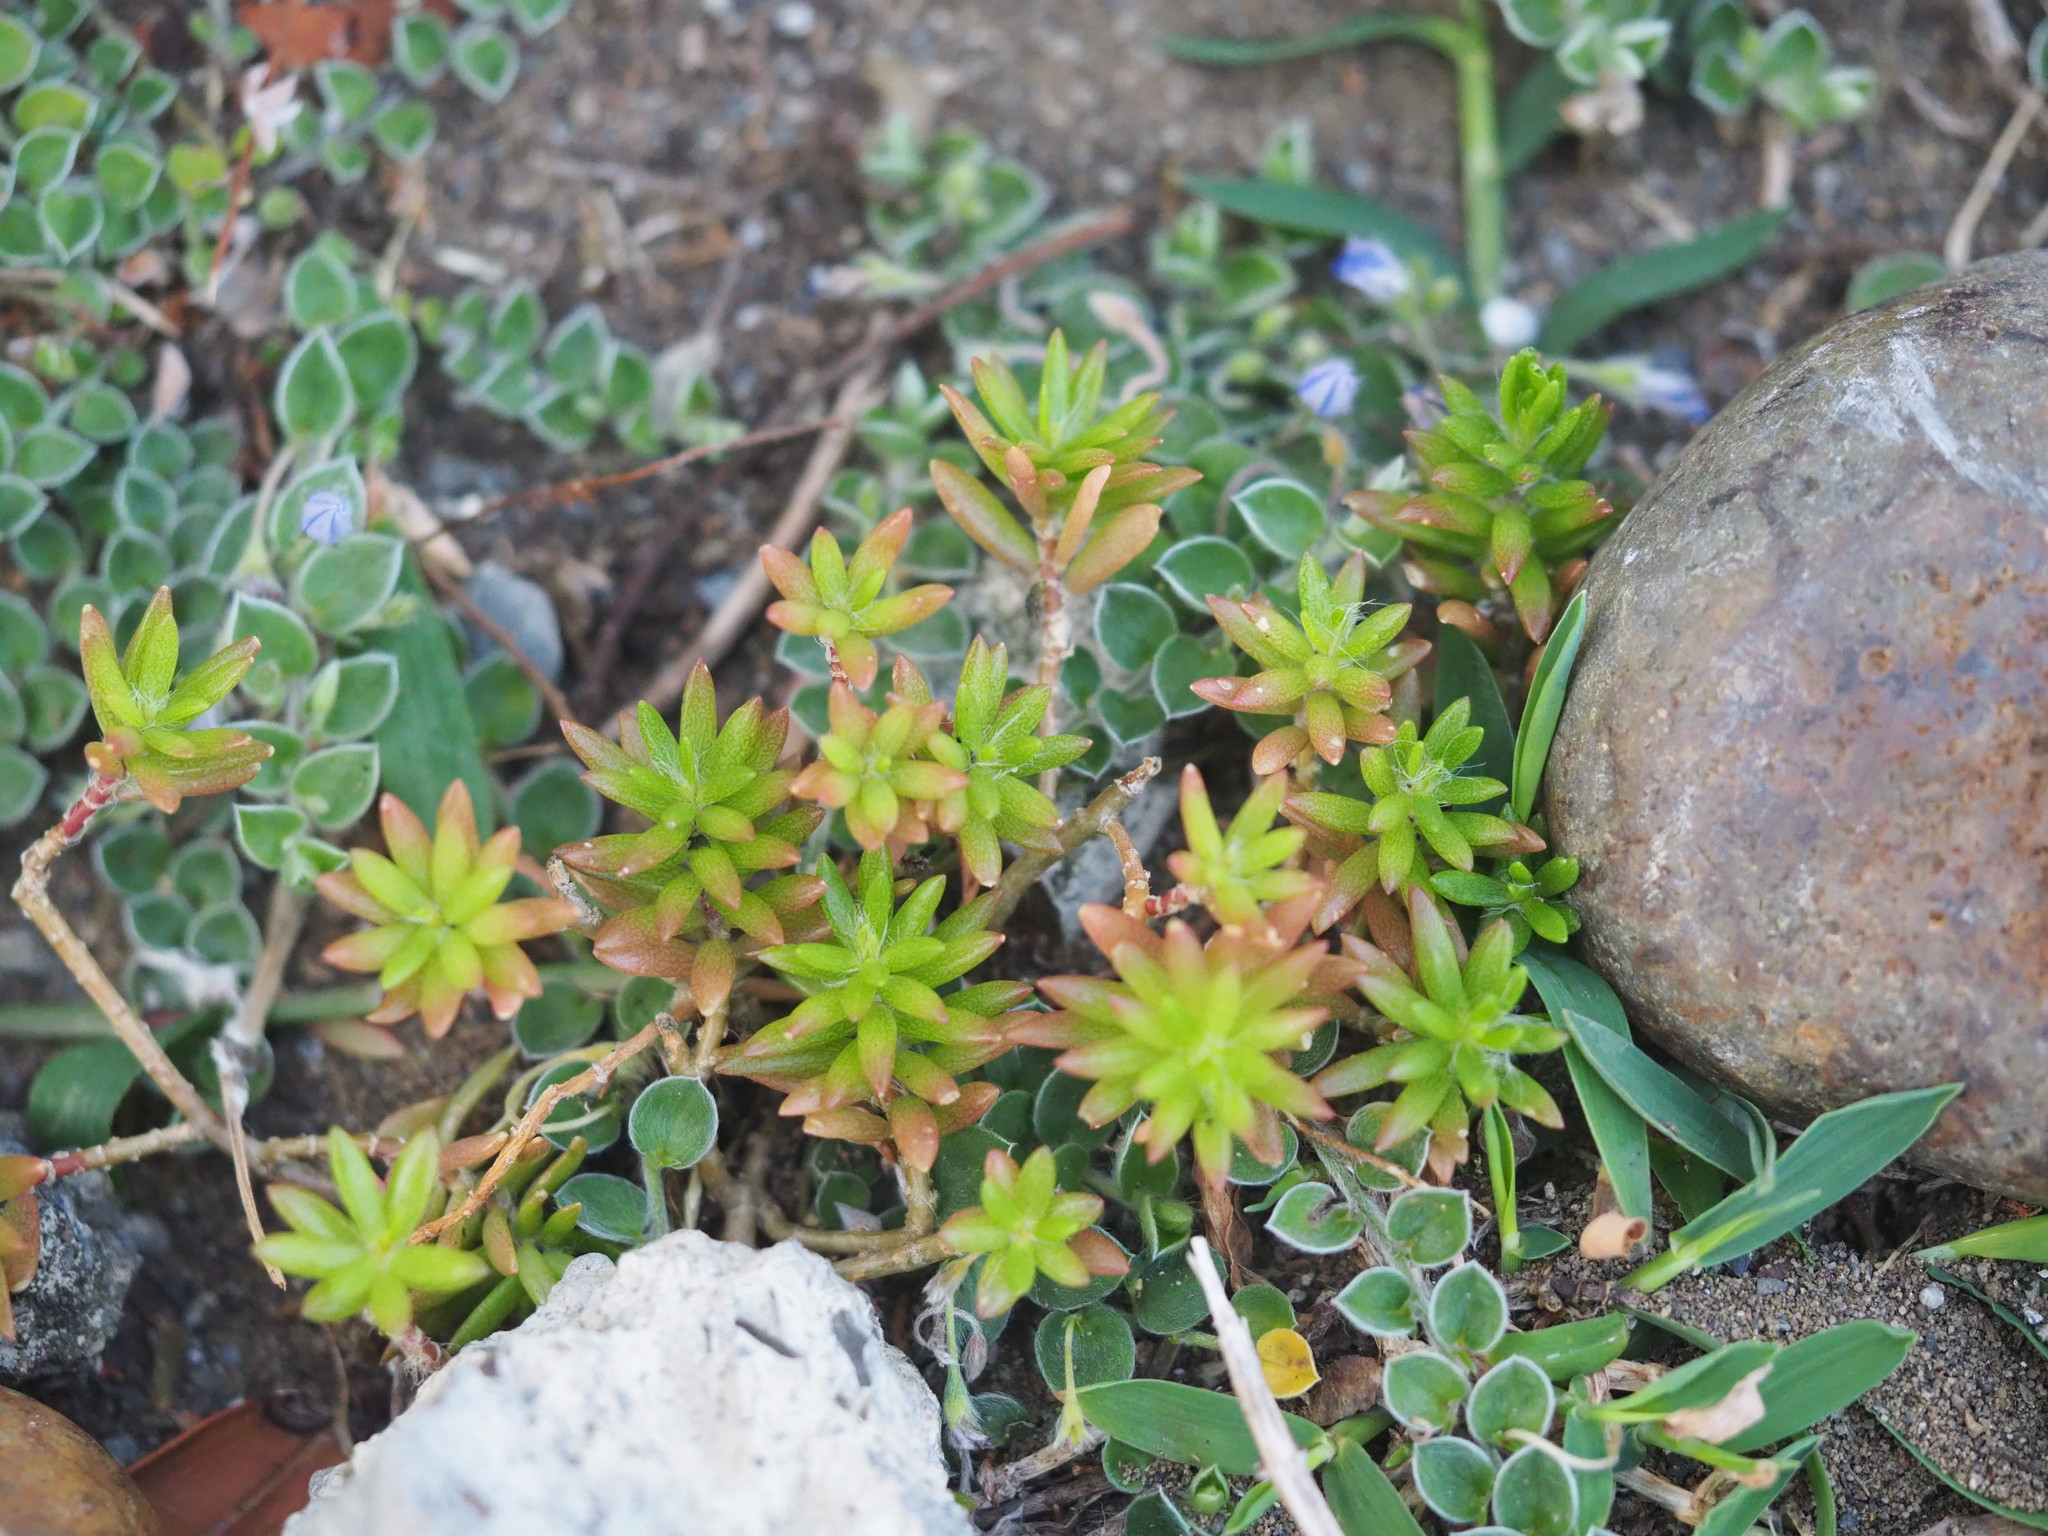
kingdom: Plantae
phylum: Tracheophyta
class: Magnoliopsida
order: Caryophyllales
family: Portulacaceae
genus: Portulaca
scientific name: Portulaca pilosa
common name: Kiss me quick
